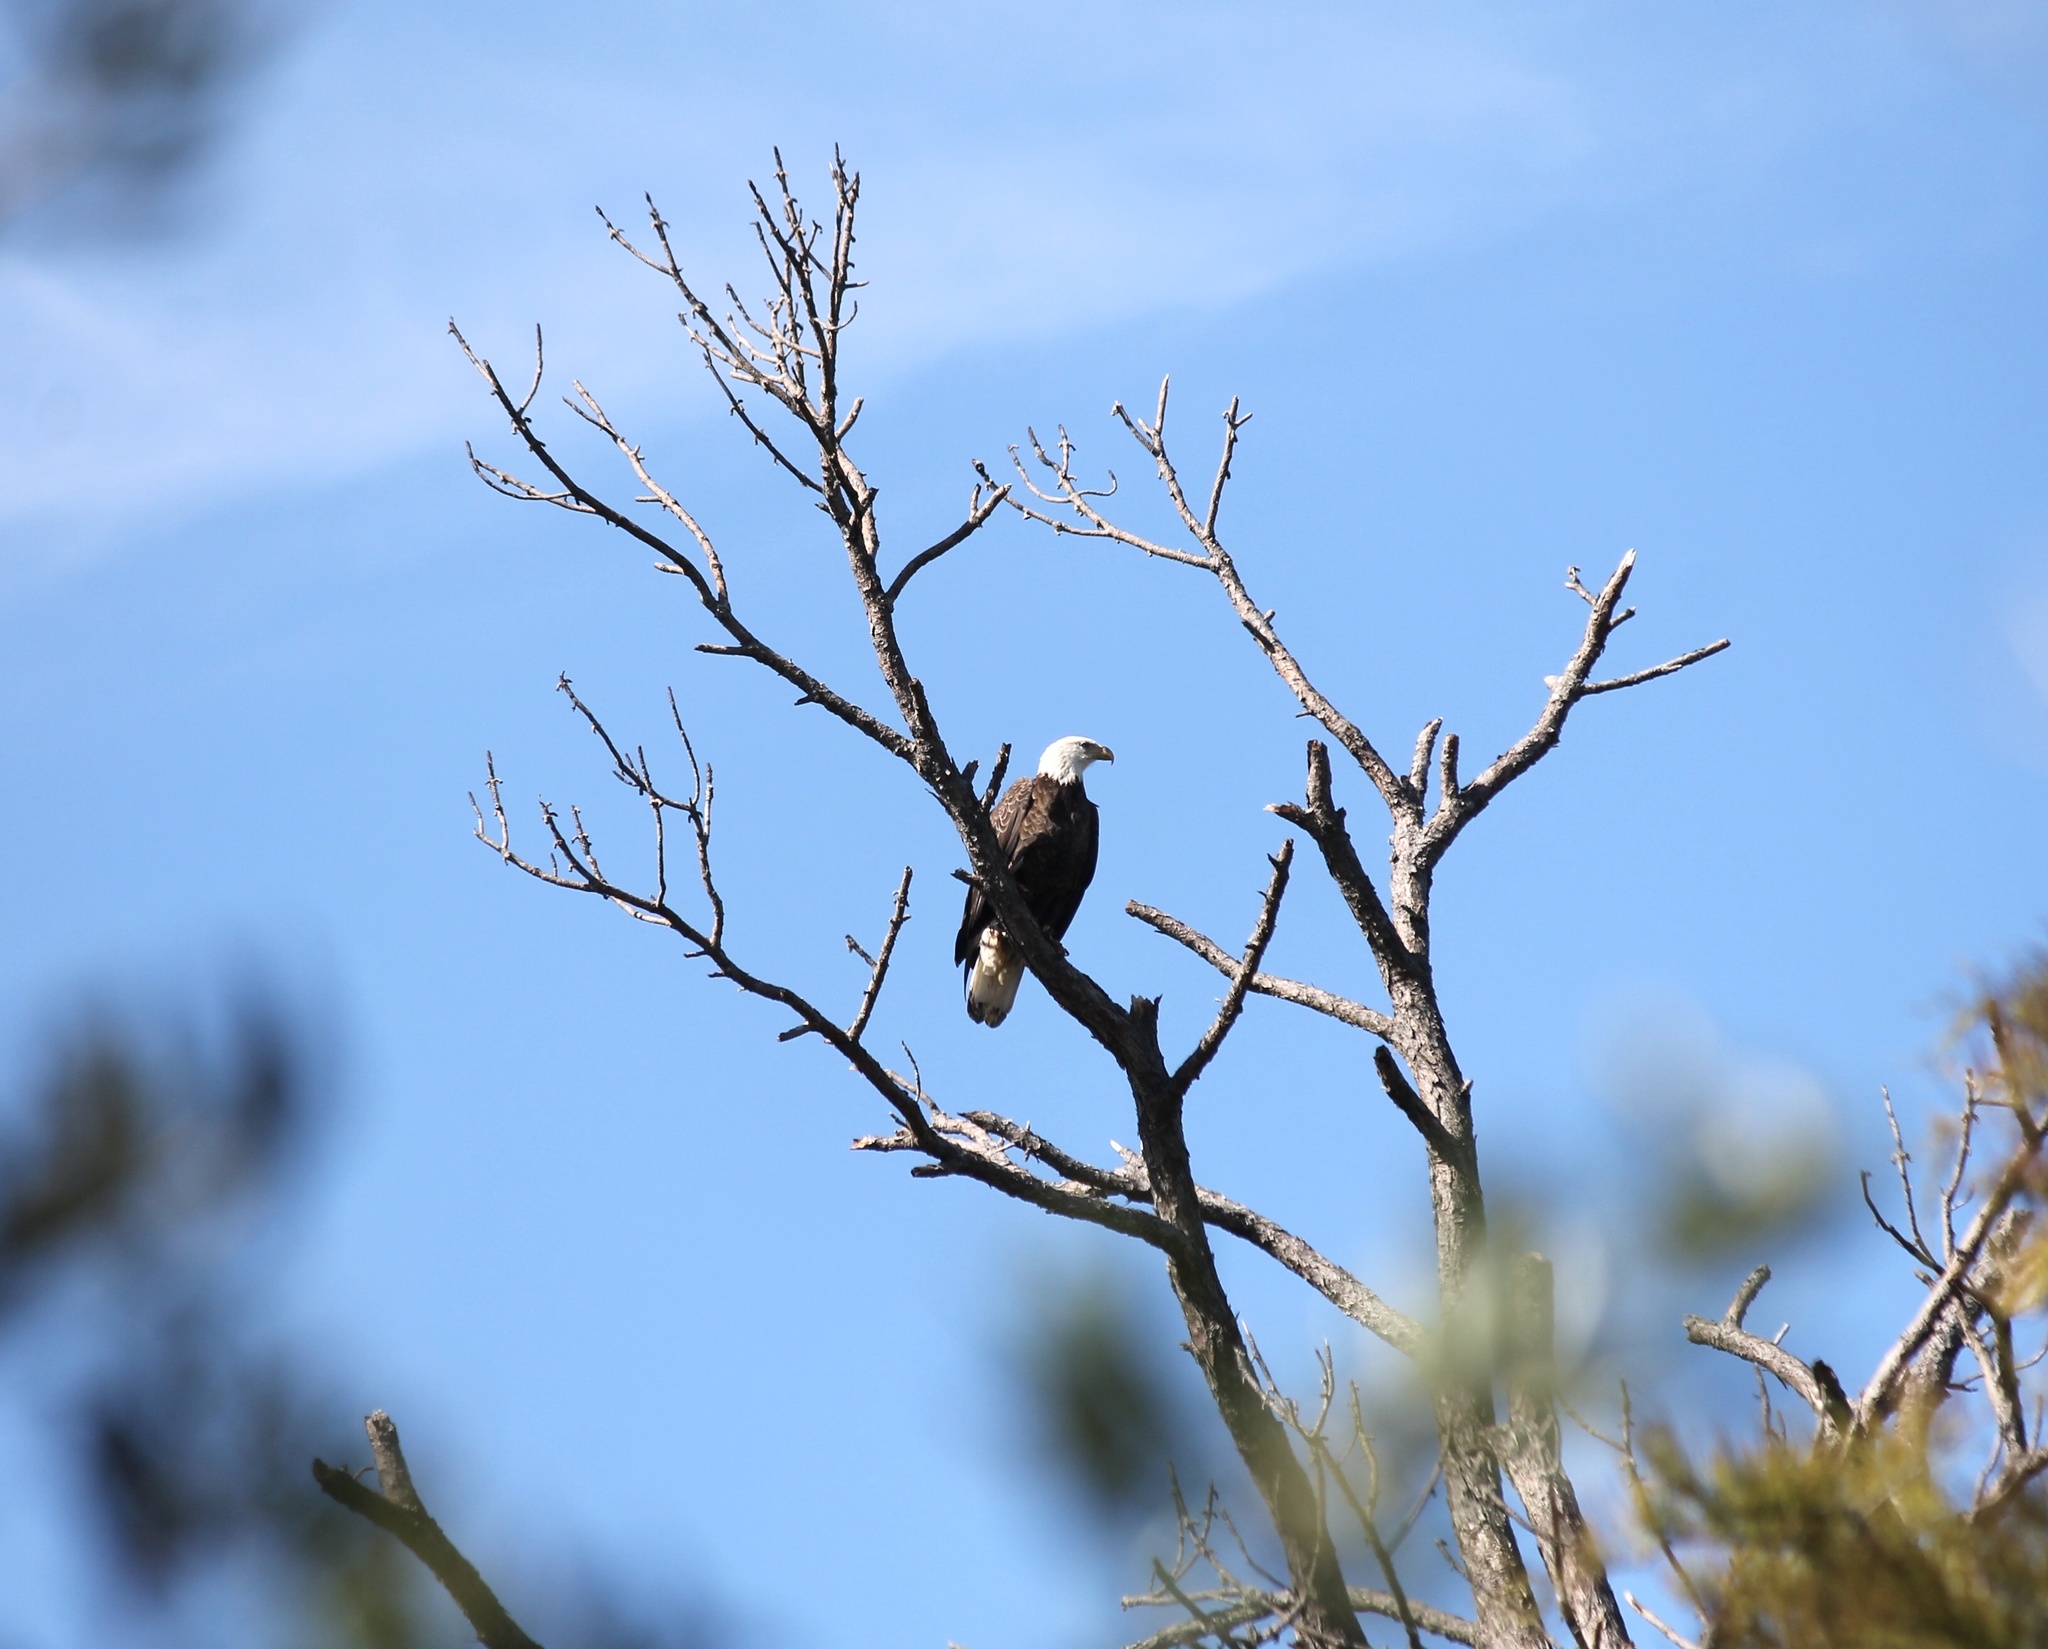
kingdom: Animalia
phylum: Chordata
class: Aves
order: Accipitriformes
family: Accipitridae
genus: Haliaeetus
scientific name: Haliaeetus leucocephalus
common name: Bald eagle
